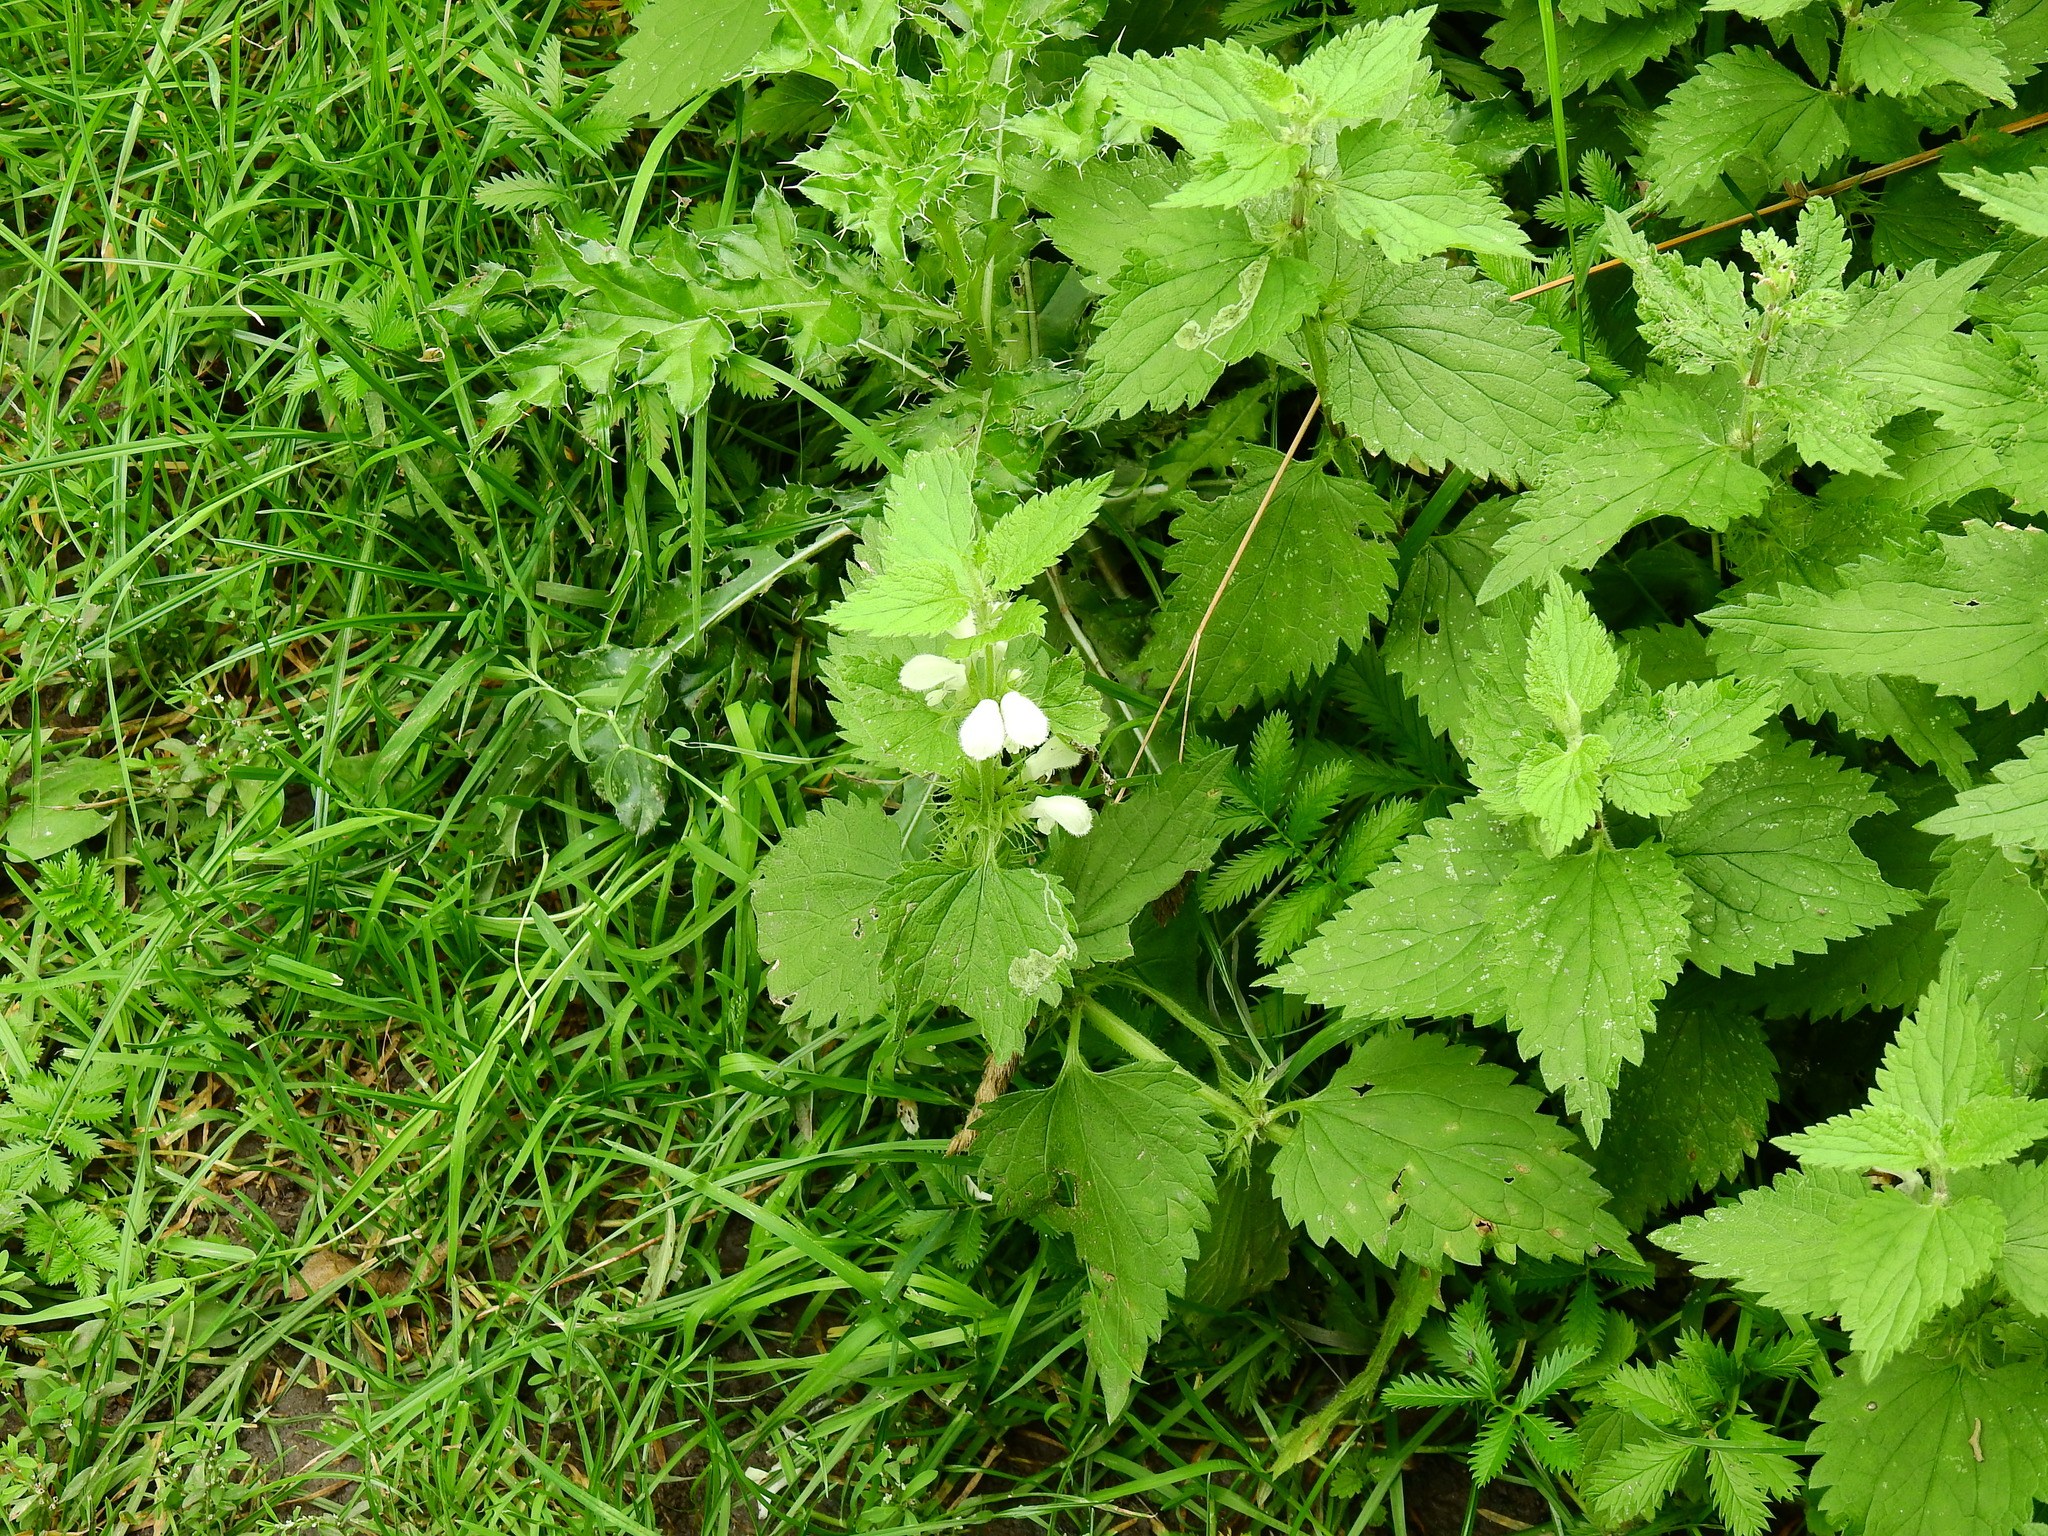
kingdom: Plantae
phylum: Tracheophyta
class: Magnoliopsida
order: Lamiales
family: Lamiaceae
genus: Lamium
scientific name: Lamium album
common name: White dead-nettle
